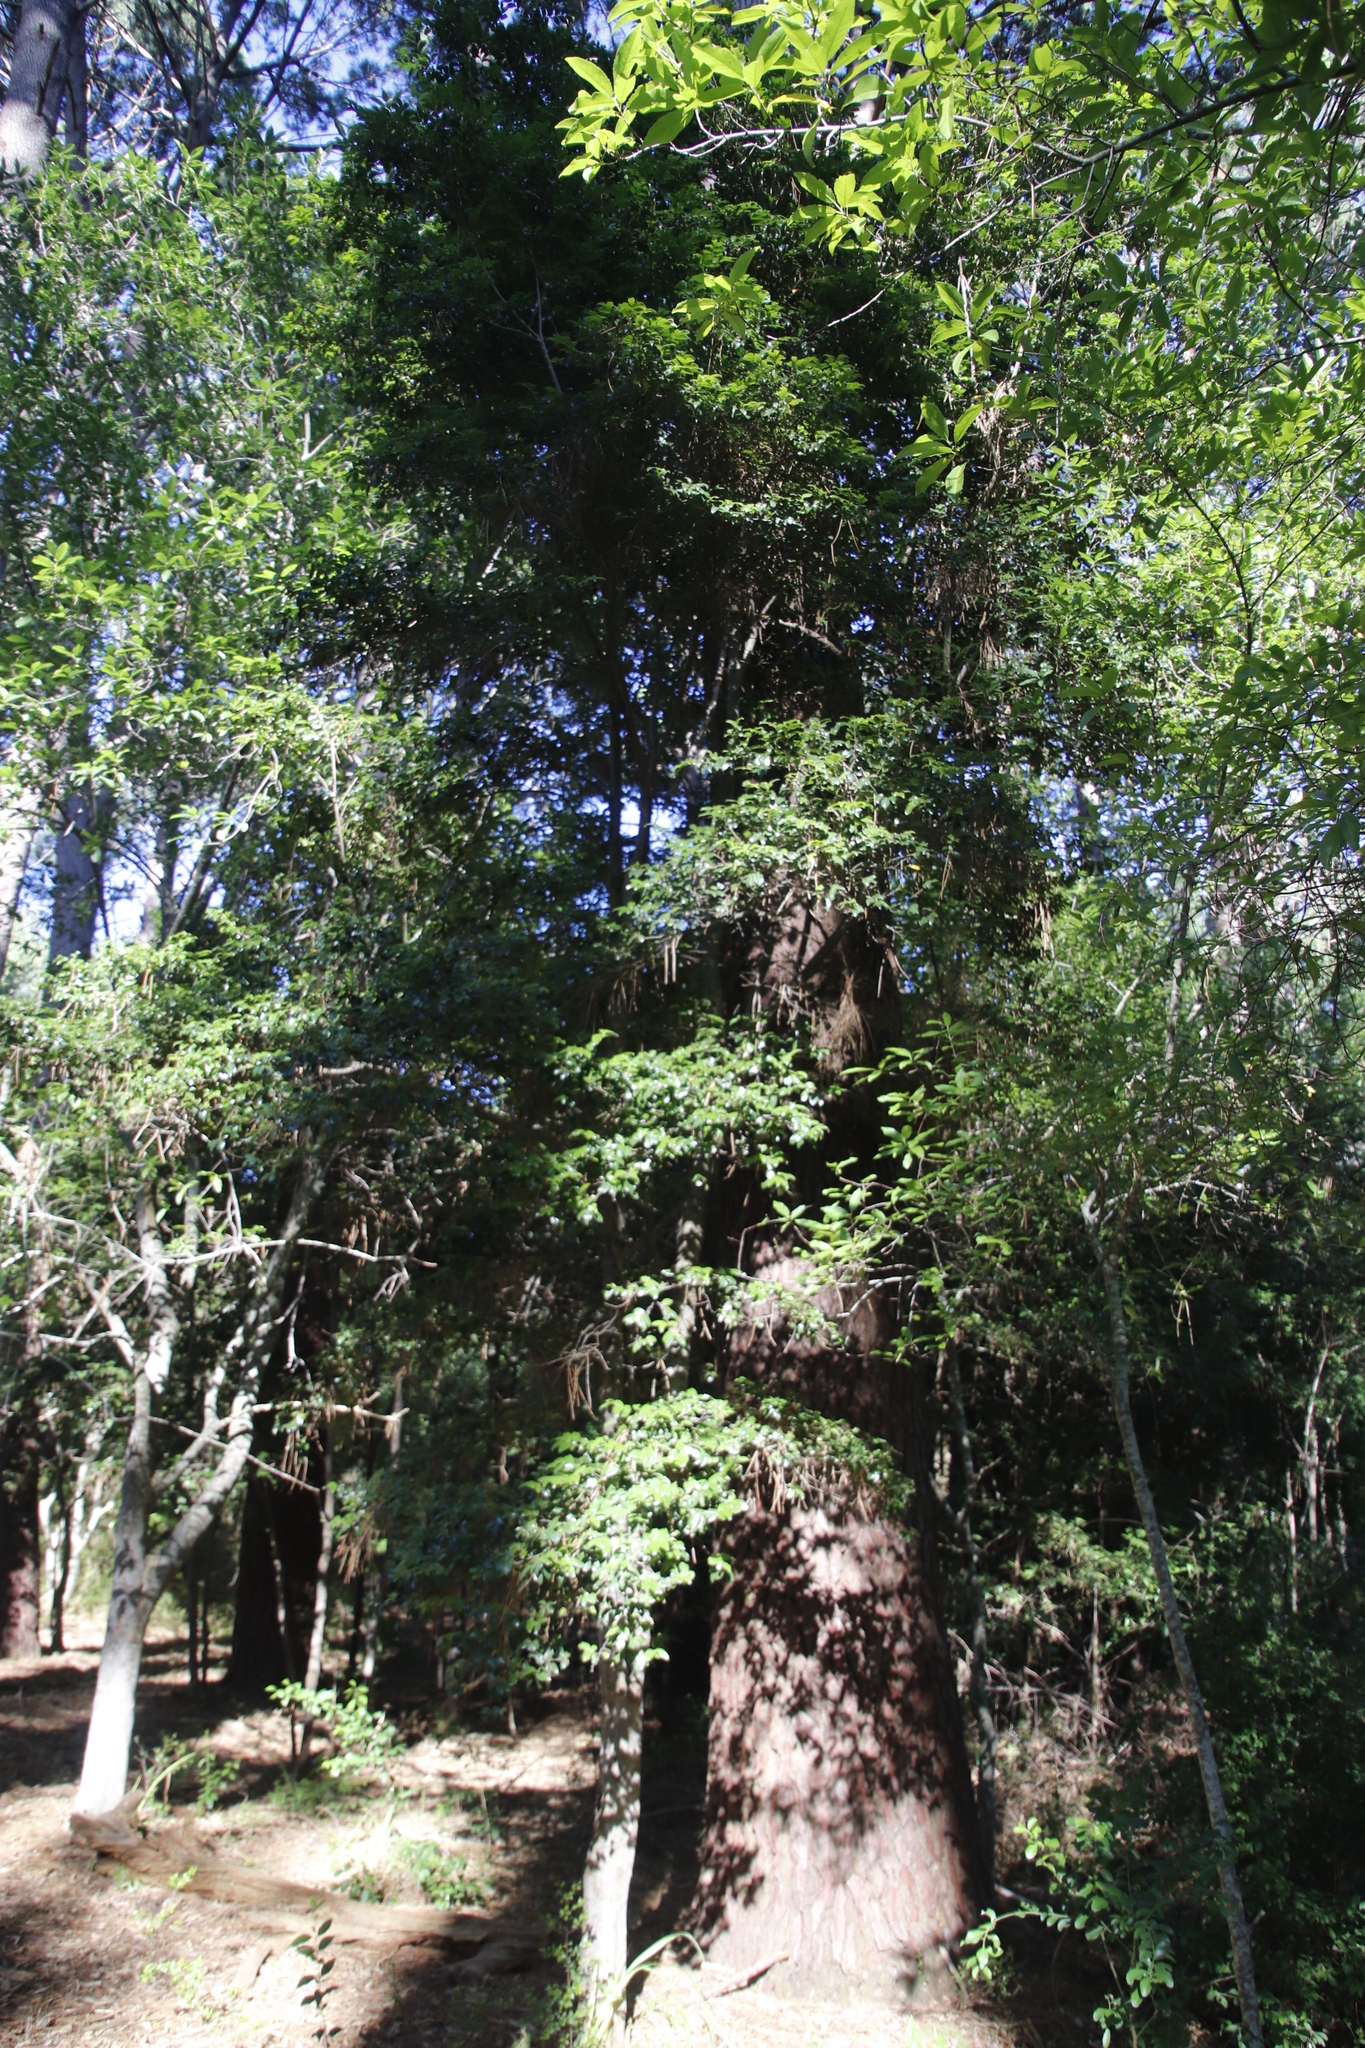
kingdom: Plantae
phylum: Tracheophyta
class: Magnoliopsida
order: Ericales
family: Ebenaceae
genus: Diospyros
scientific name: Diospyros whyteana
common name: Bladder-nut
